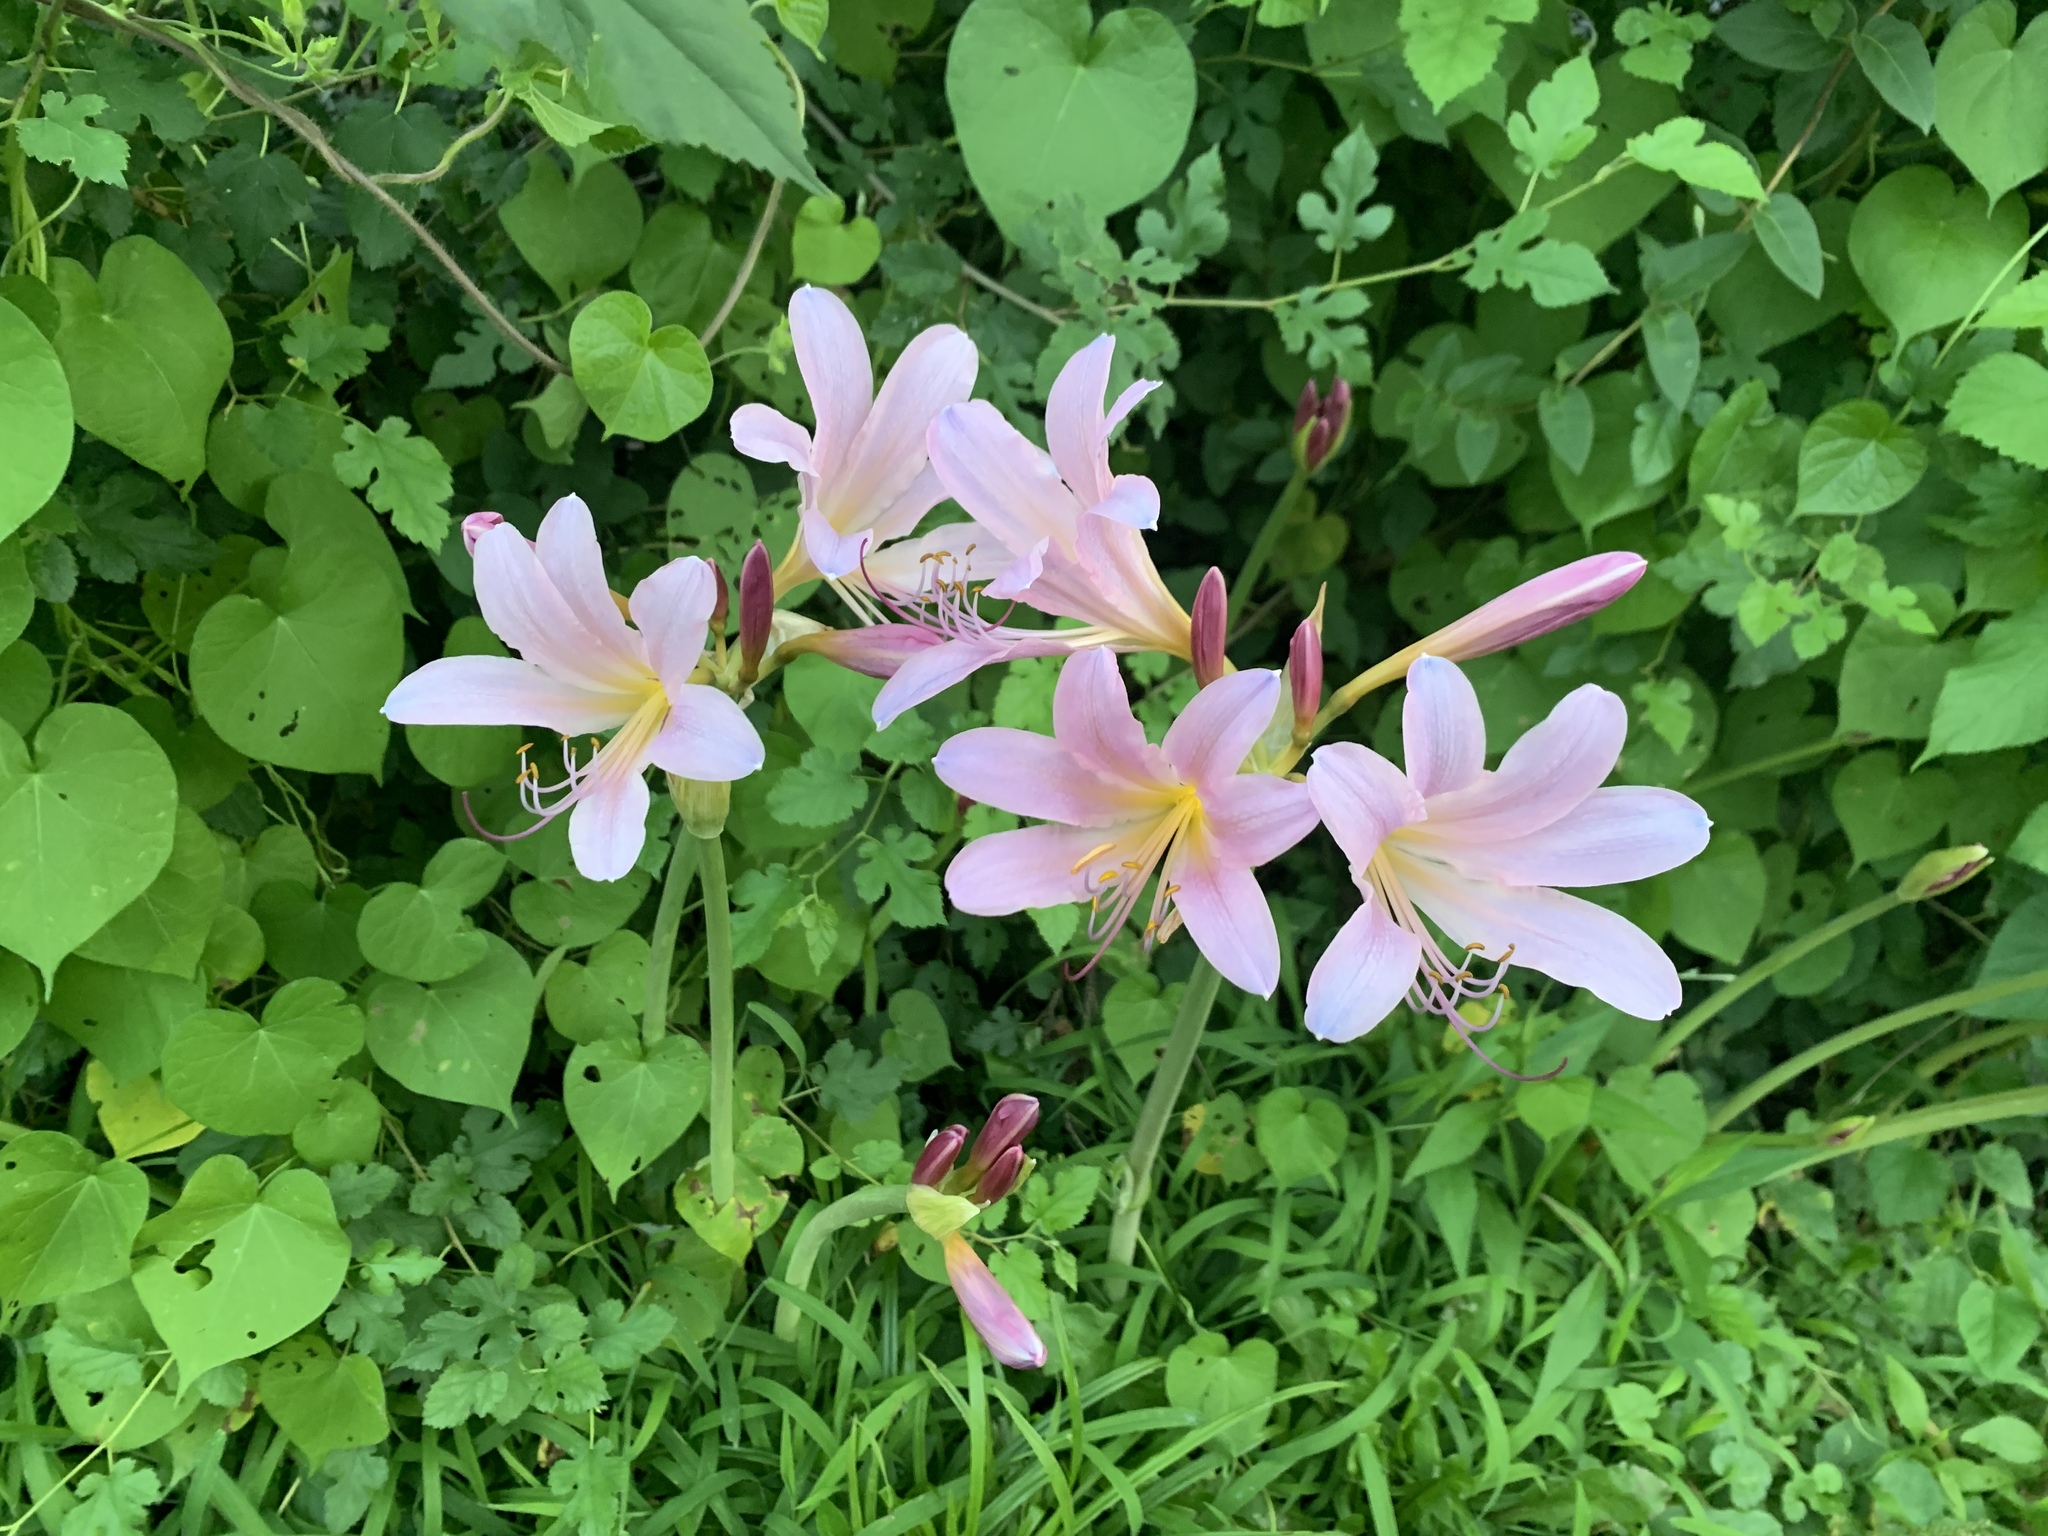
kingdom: Plantae
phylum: Tracheophyta
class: Liliopsida
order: Asparagales
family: Amaryllidaceae
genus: Lycoris
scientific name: Lycoris squamigera
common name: Magic-lily
